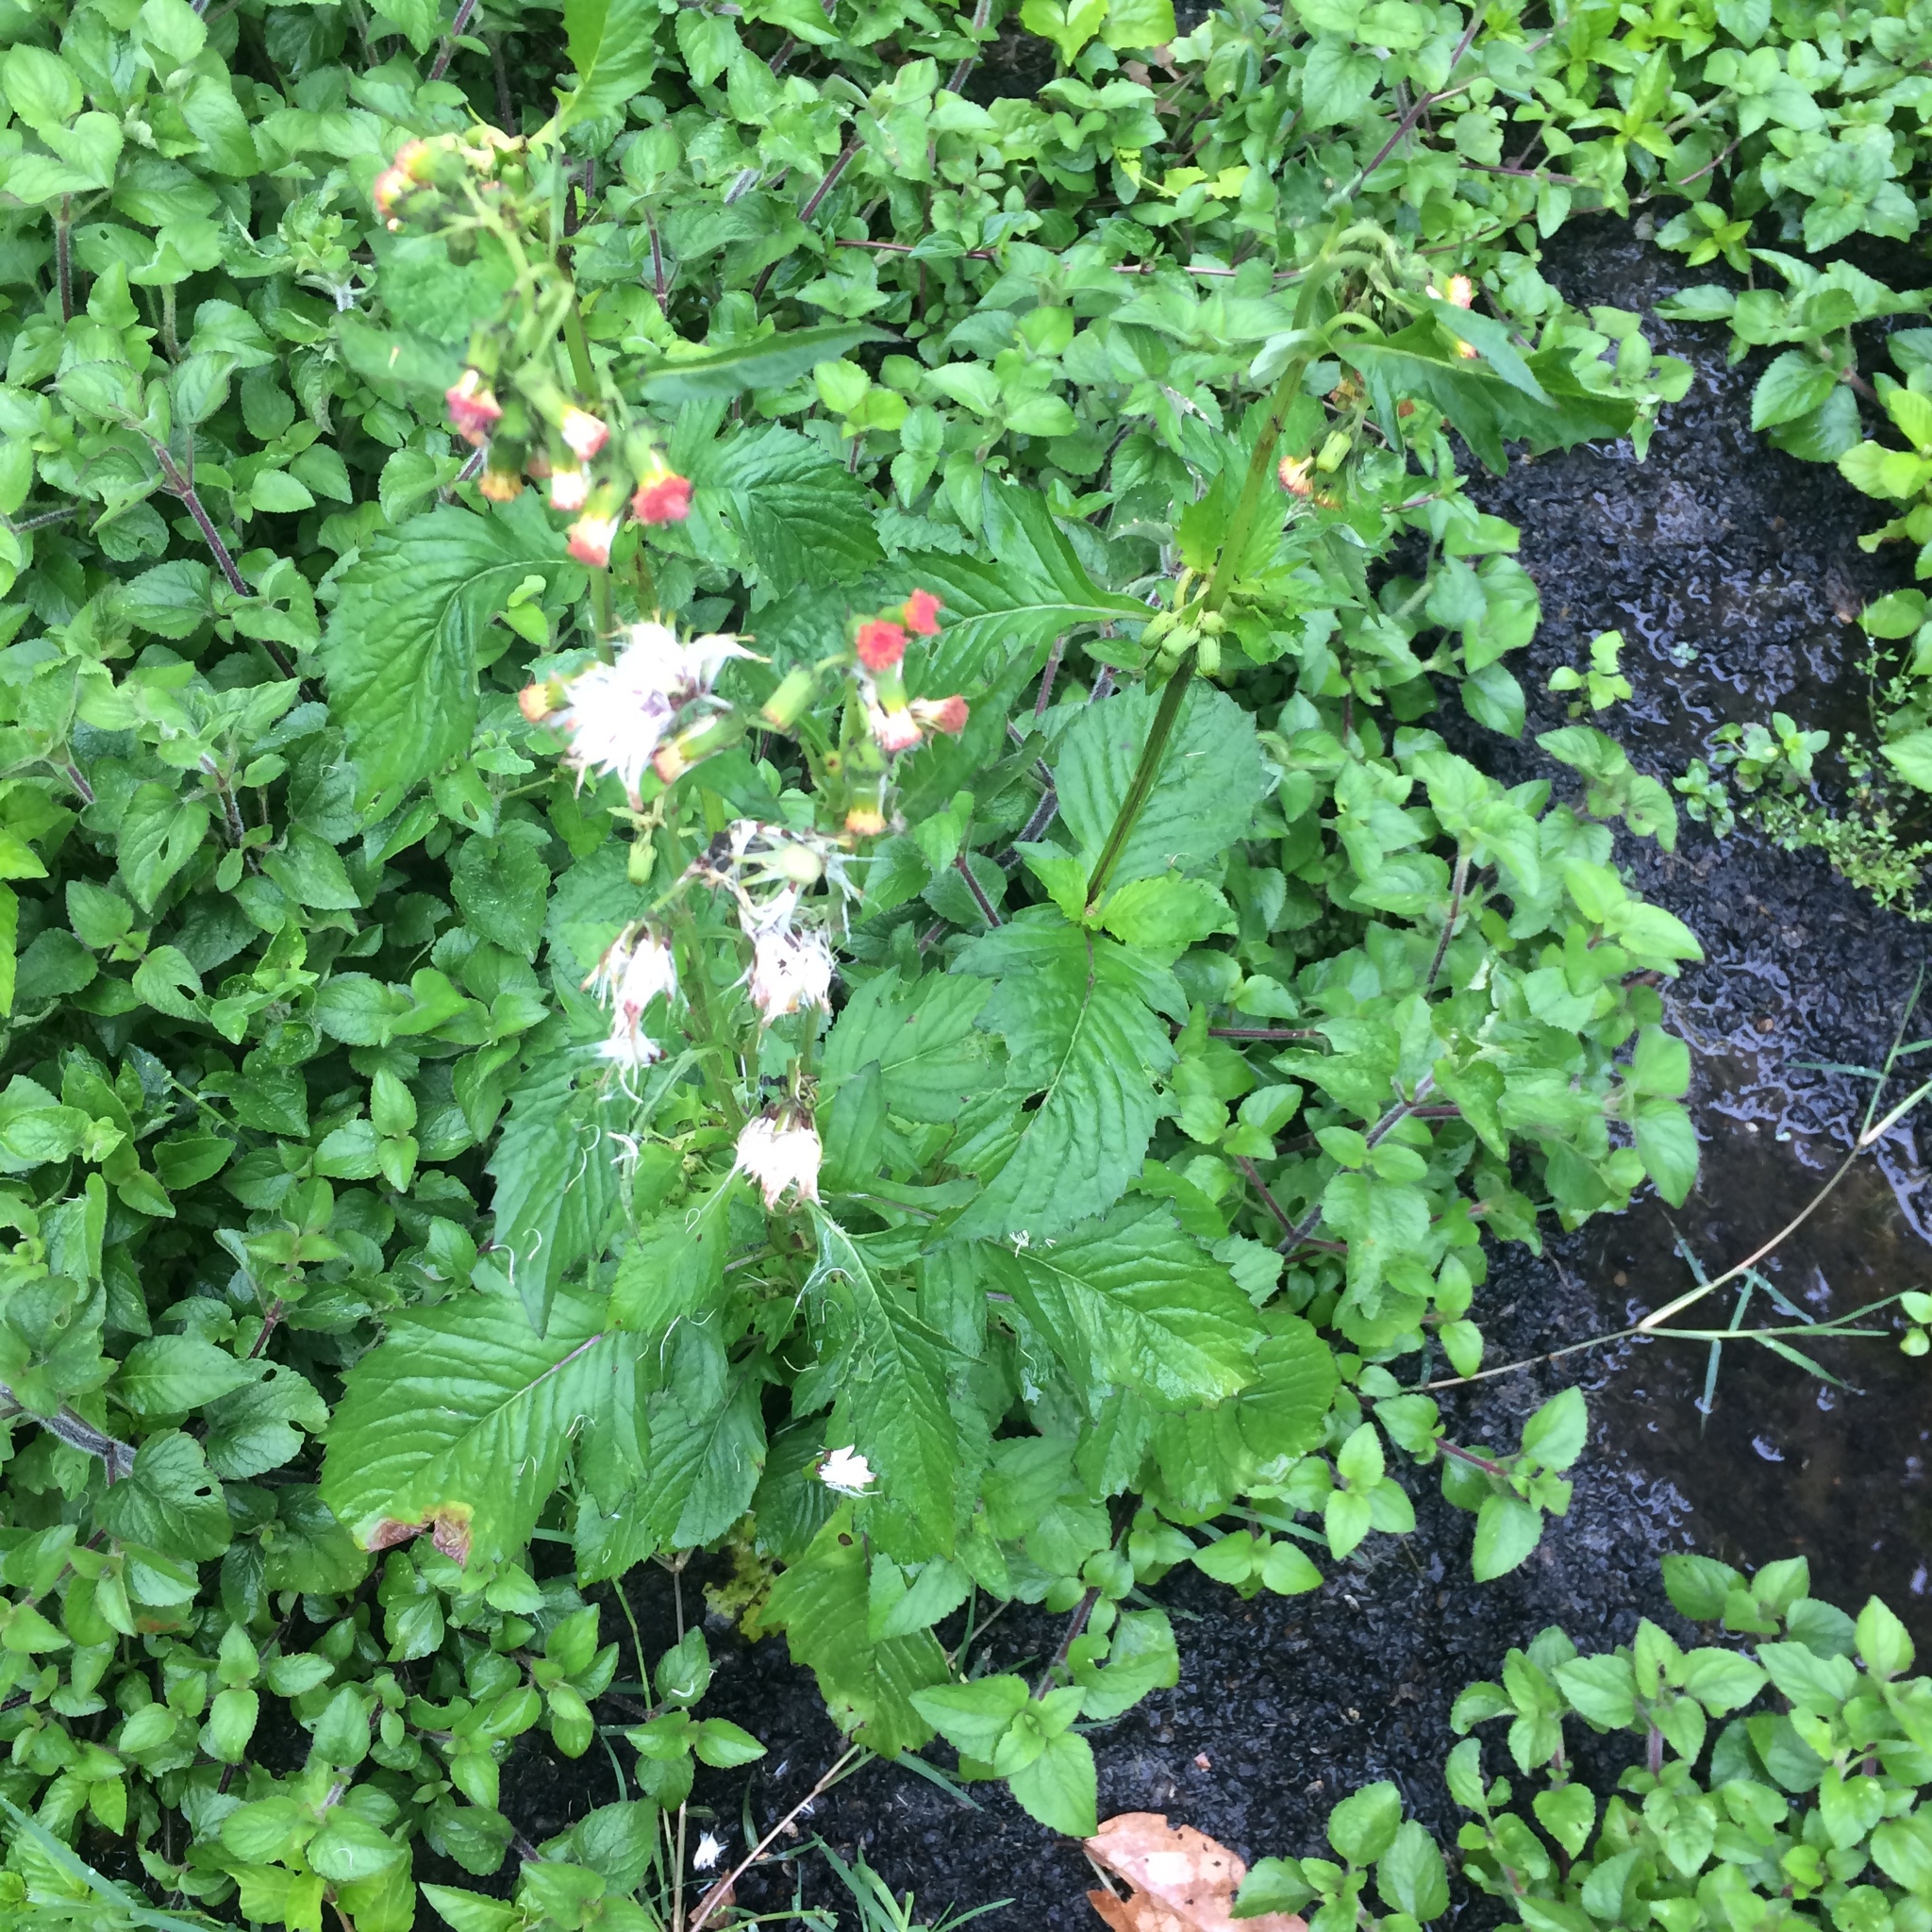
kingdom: Plantae
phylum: Tracheophyta
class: Magnoliopsida
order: Asterales
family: Asteraceae
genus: Crassocephalum
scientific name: Crassocephalum crepidioides
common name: Redflower ragleaf
